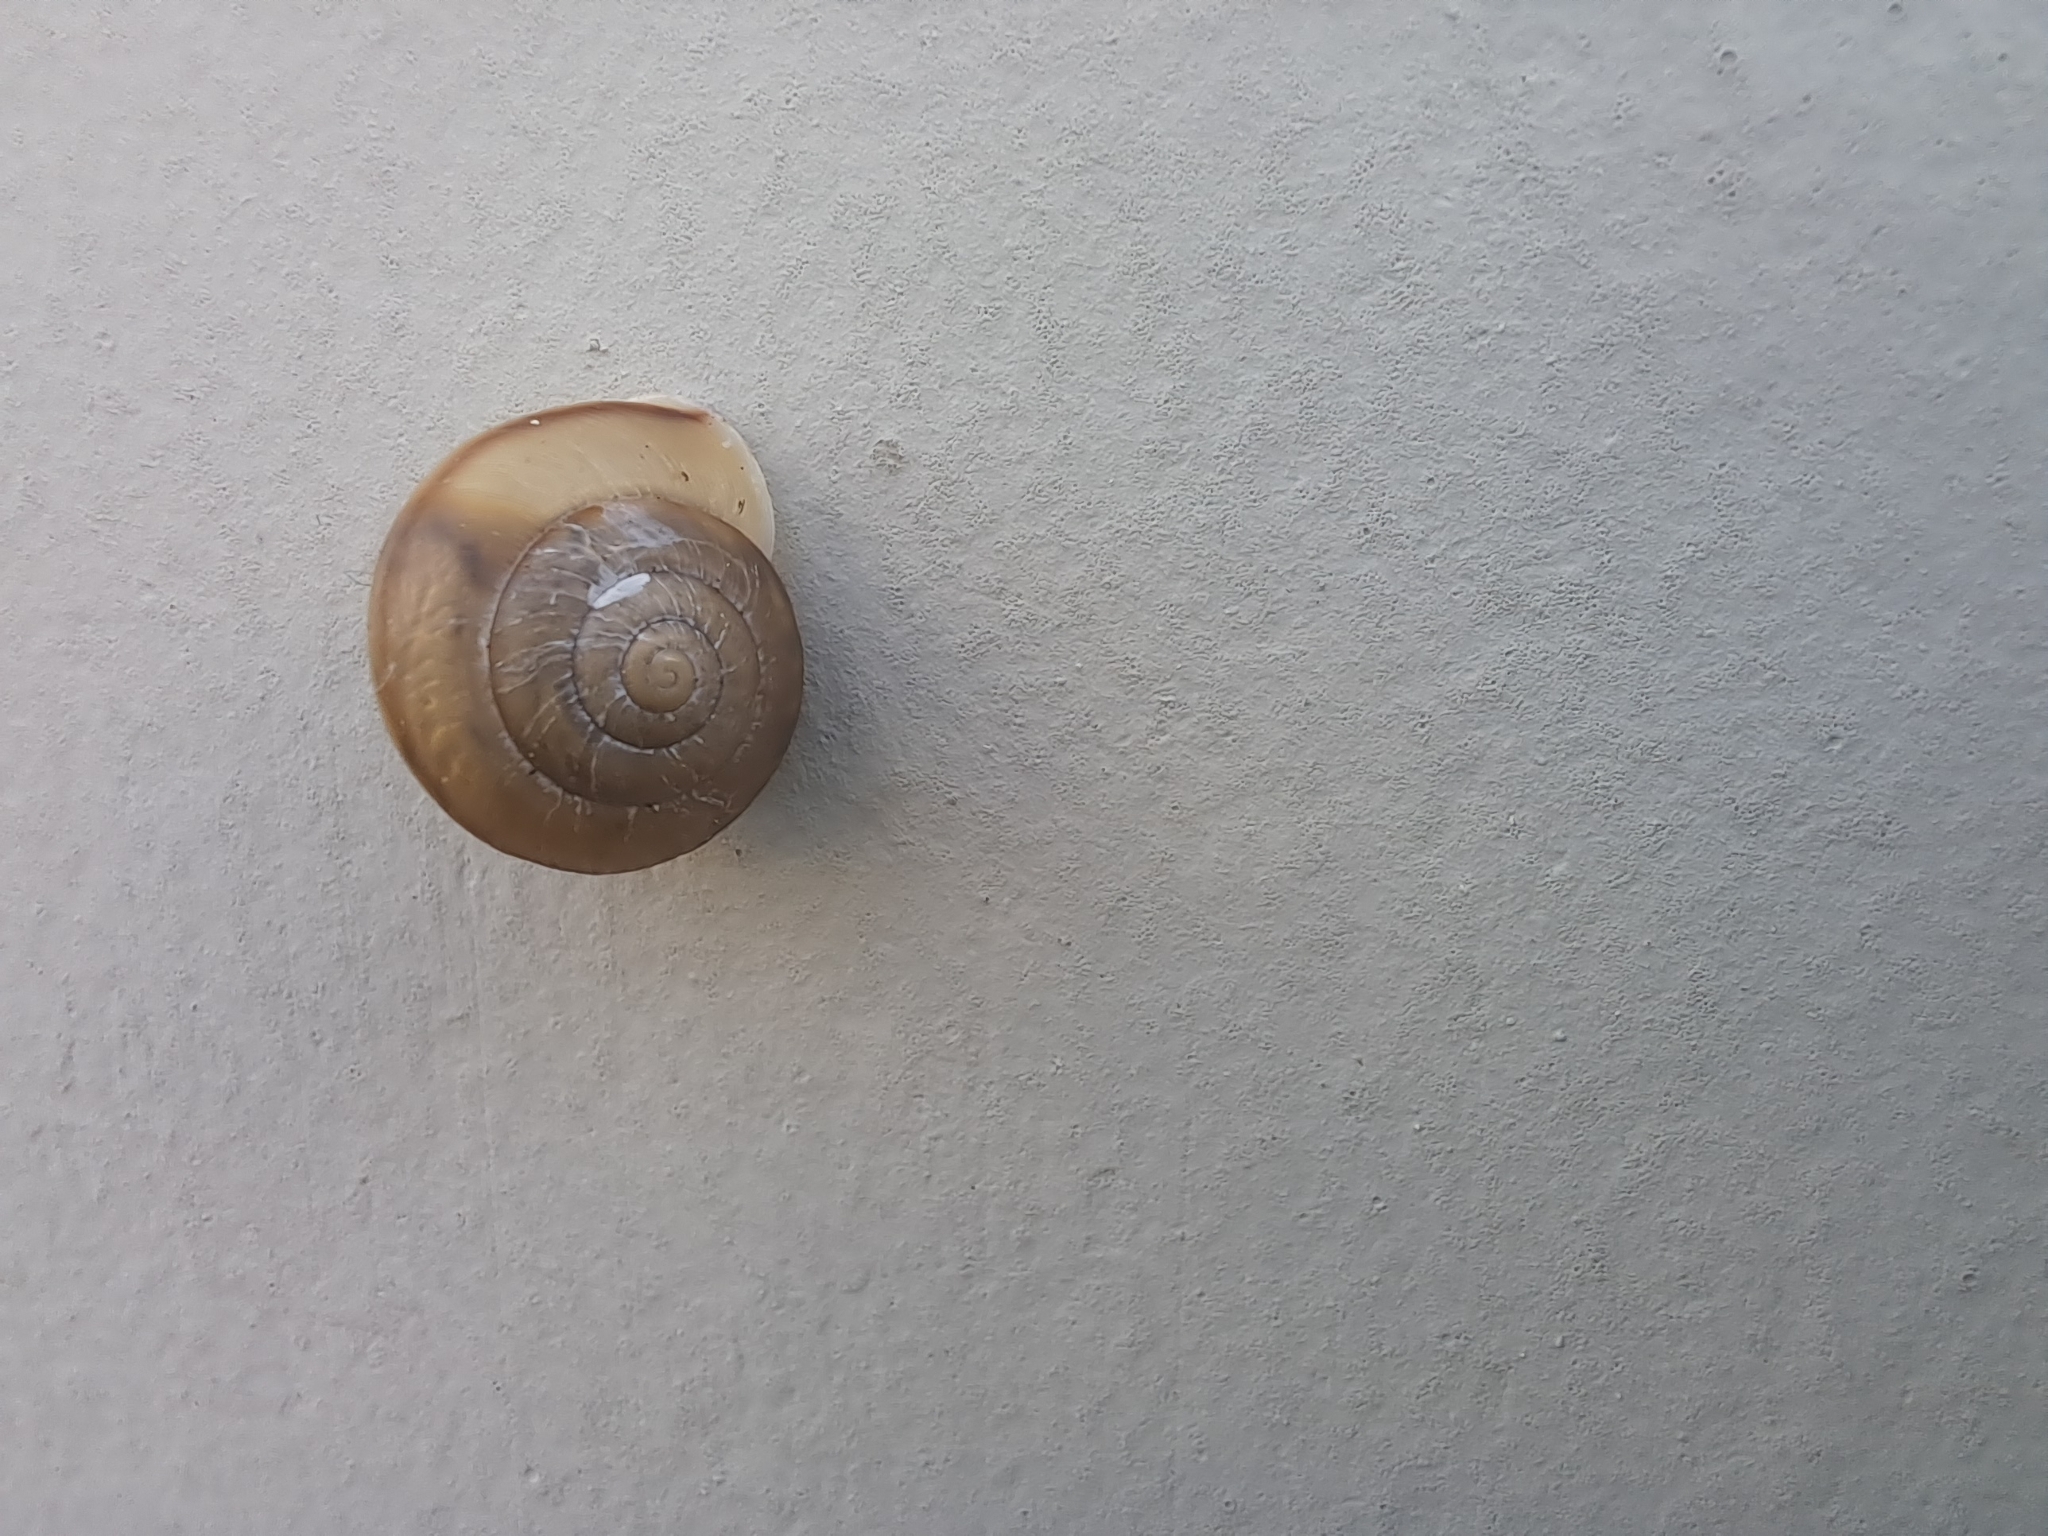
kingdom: Animalia
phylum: Mollusca
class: Gastropoda
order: Stylommatophora
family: Camaenidae
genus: Bradybaena
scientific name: Bradybaena similaris
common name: Asian trampsnail
